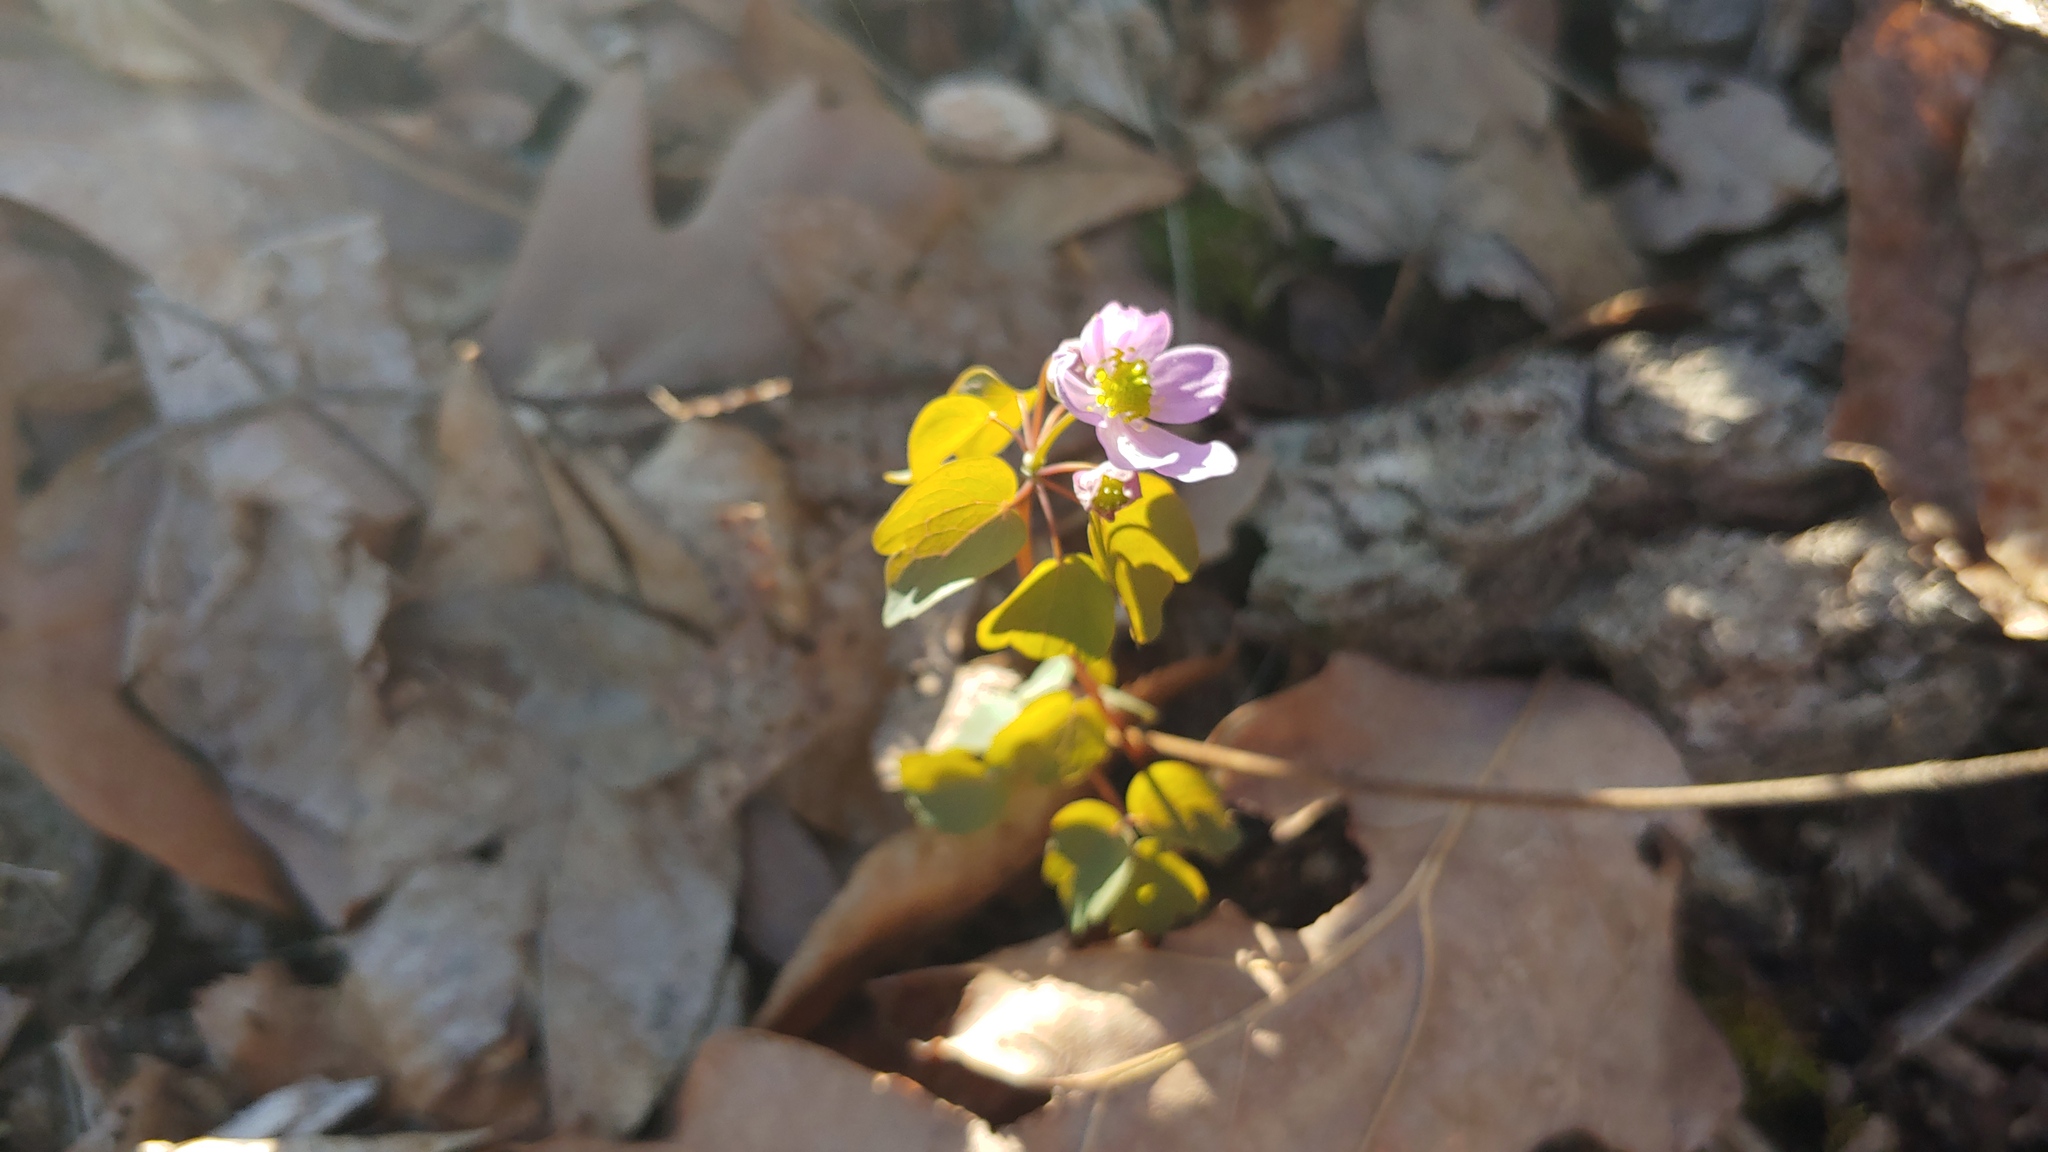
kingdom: Plantae
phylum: Tracheophyta
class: Magnoliopsida
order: Ranunculales
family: Ranunculaceae
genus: Thalictrum
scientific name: Thalictrum thalictroides
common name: Rue-anemone
